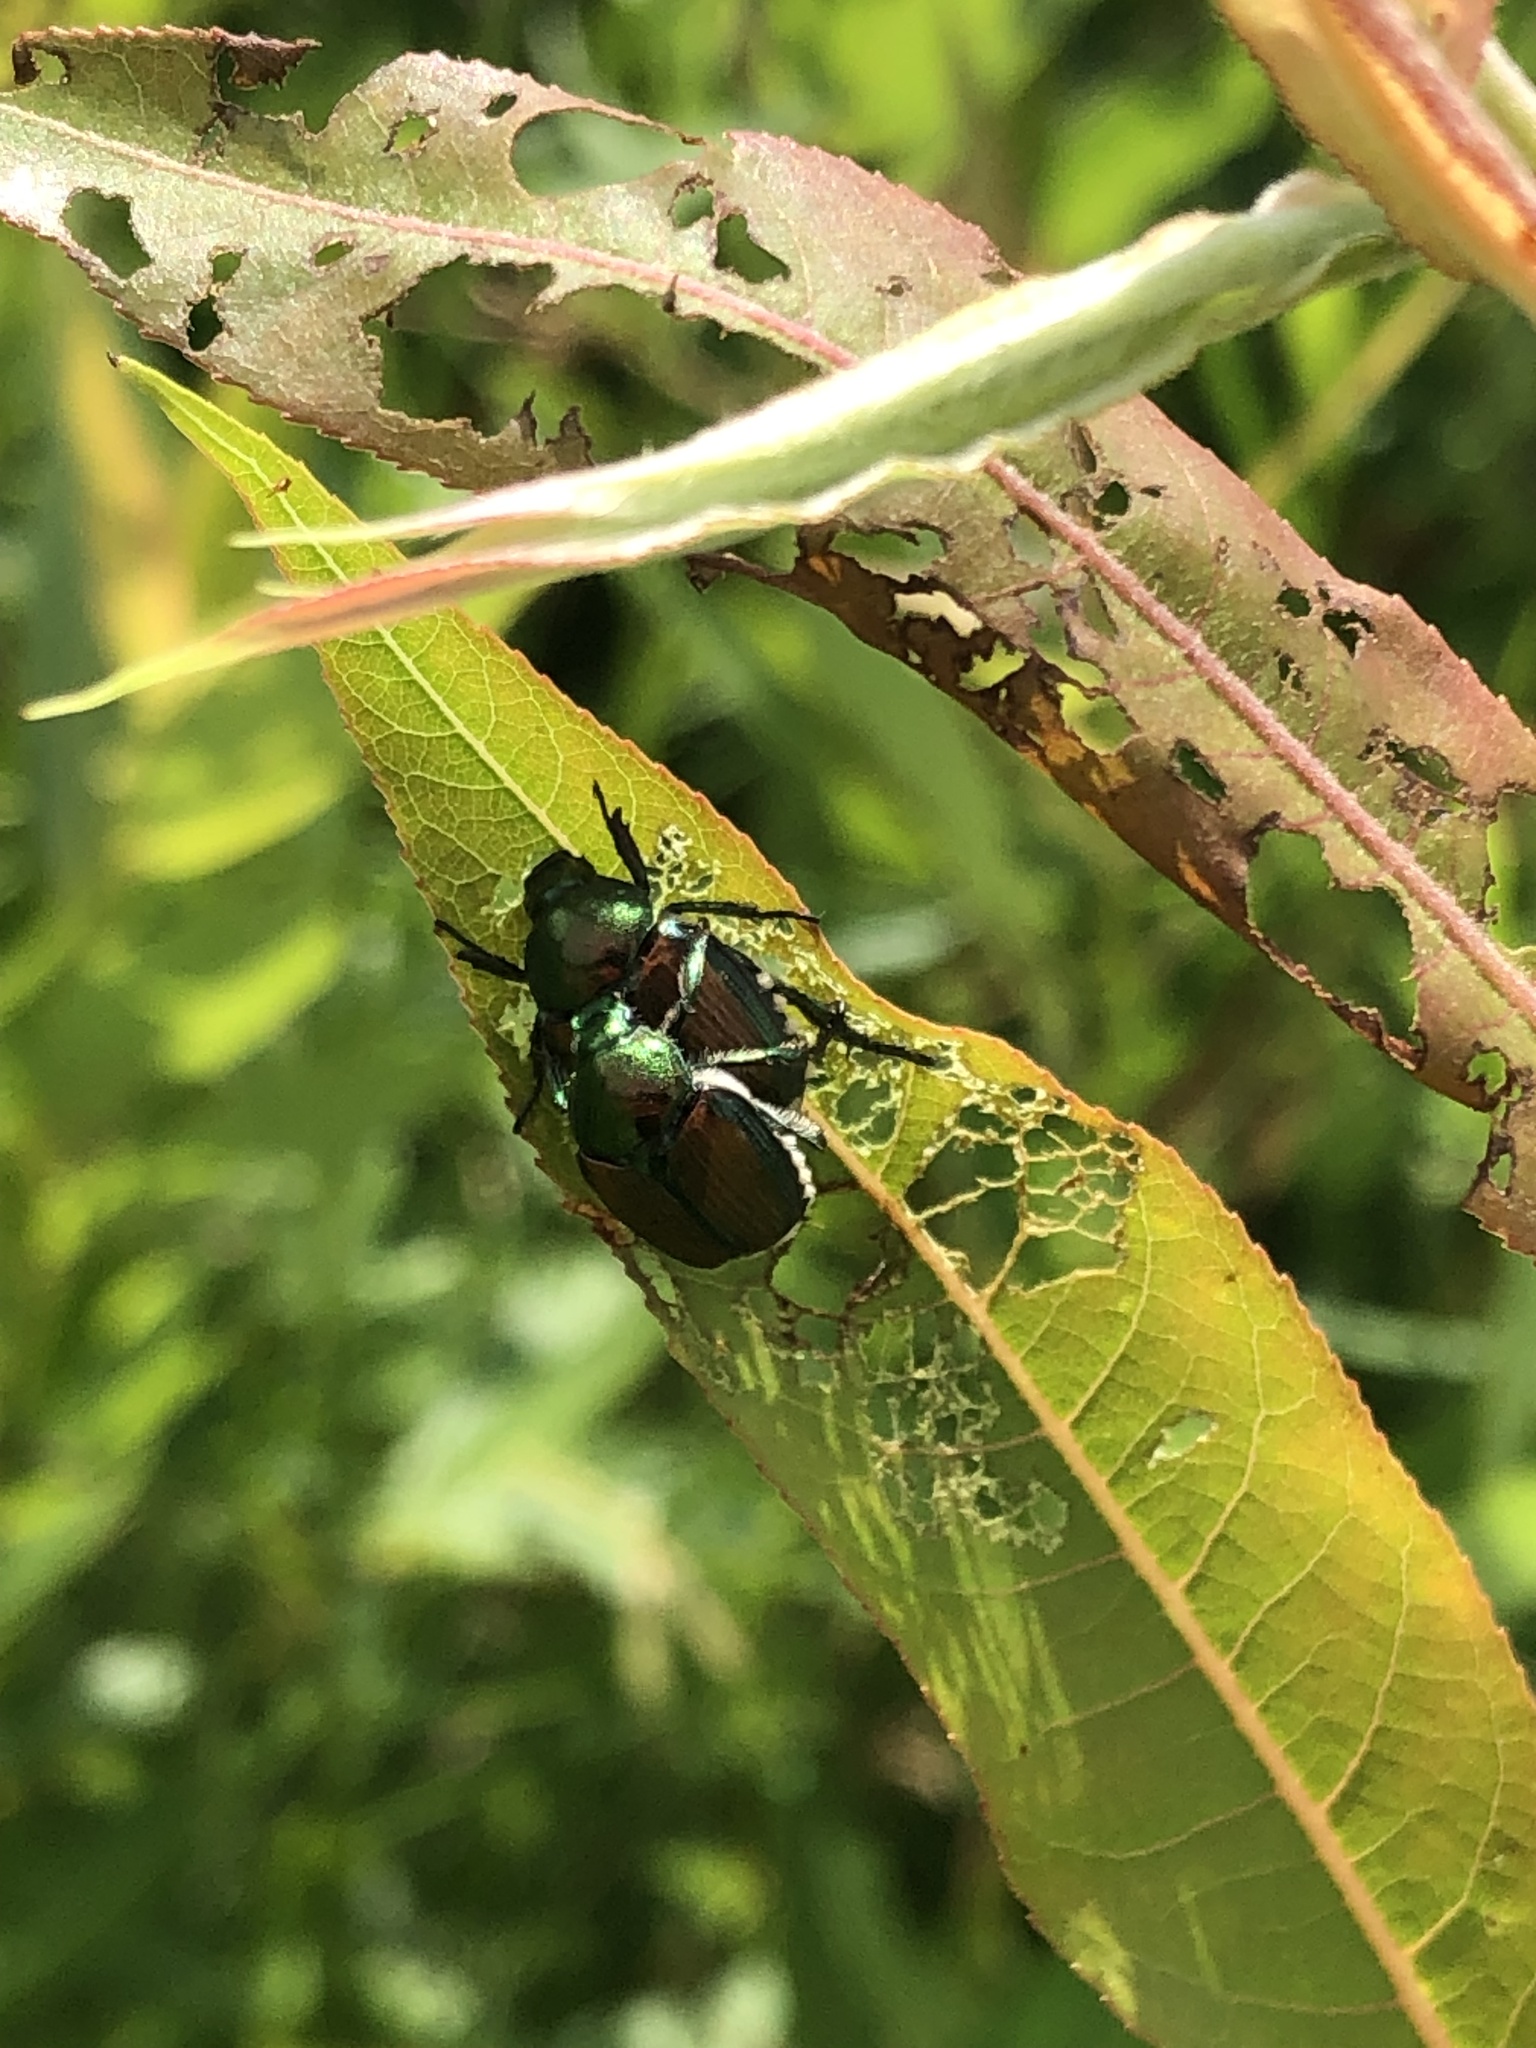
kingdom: Animalia
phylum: Arthropoda
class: Insecta
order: Coleoptera
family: Scarabaeidae
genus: Popillia
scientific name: Popillia japonica
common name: Japanese beetle
